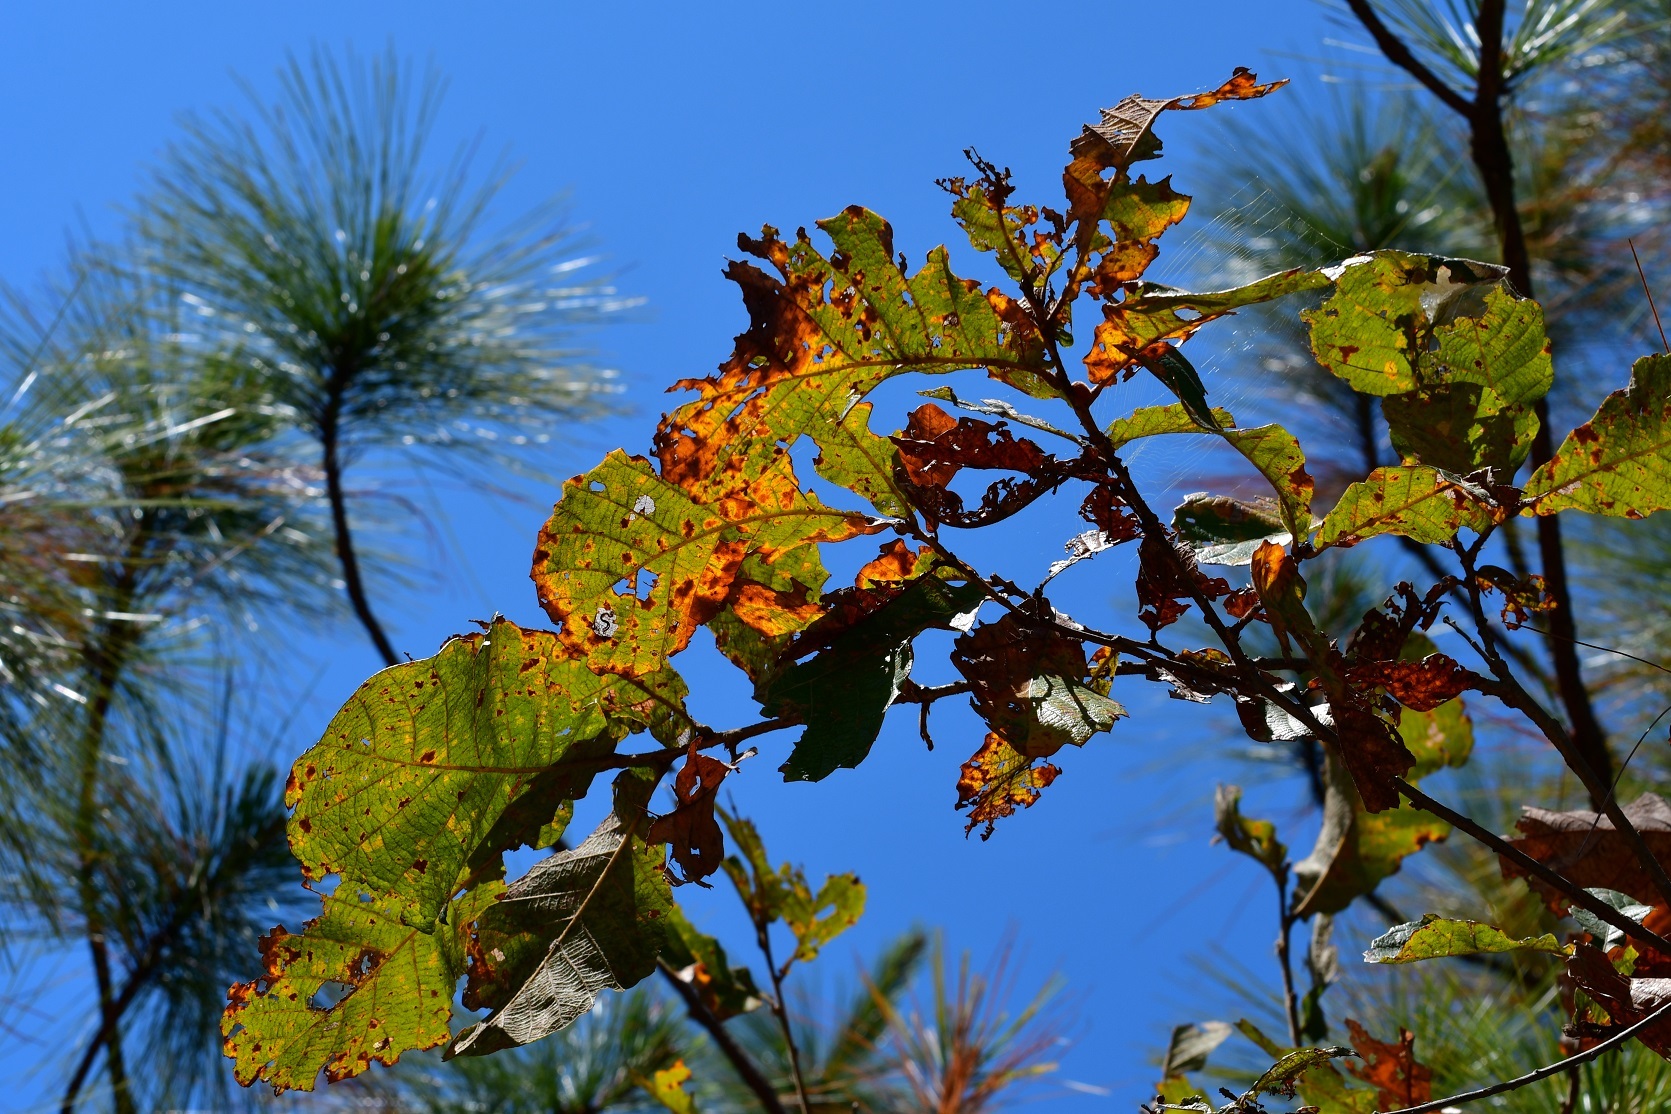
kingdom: Plantae
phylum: Tracheophyta
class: Magnoliopsida
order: Fagales
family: Fagaceae
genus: Quercus
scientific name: Quercus segoviensis
